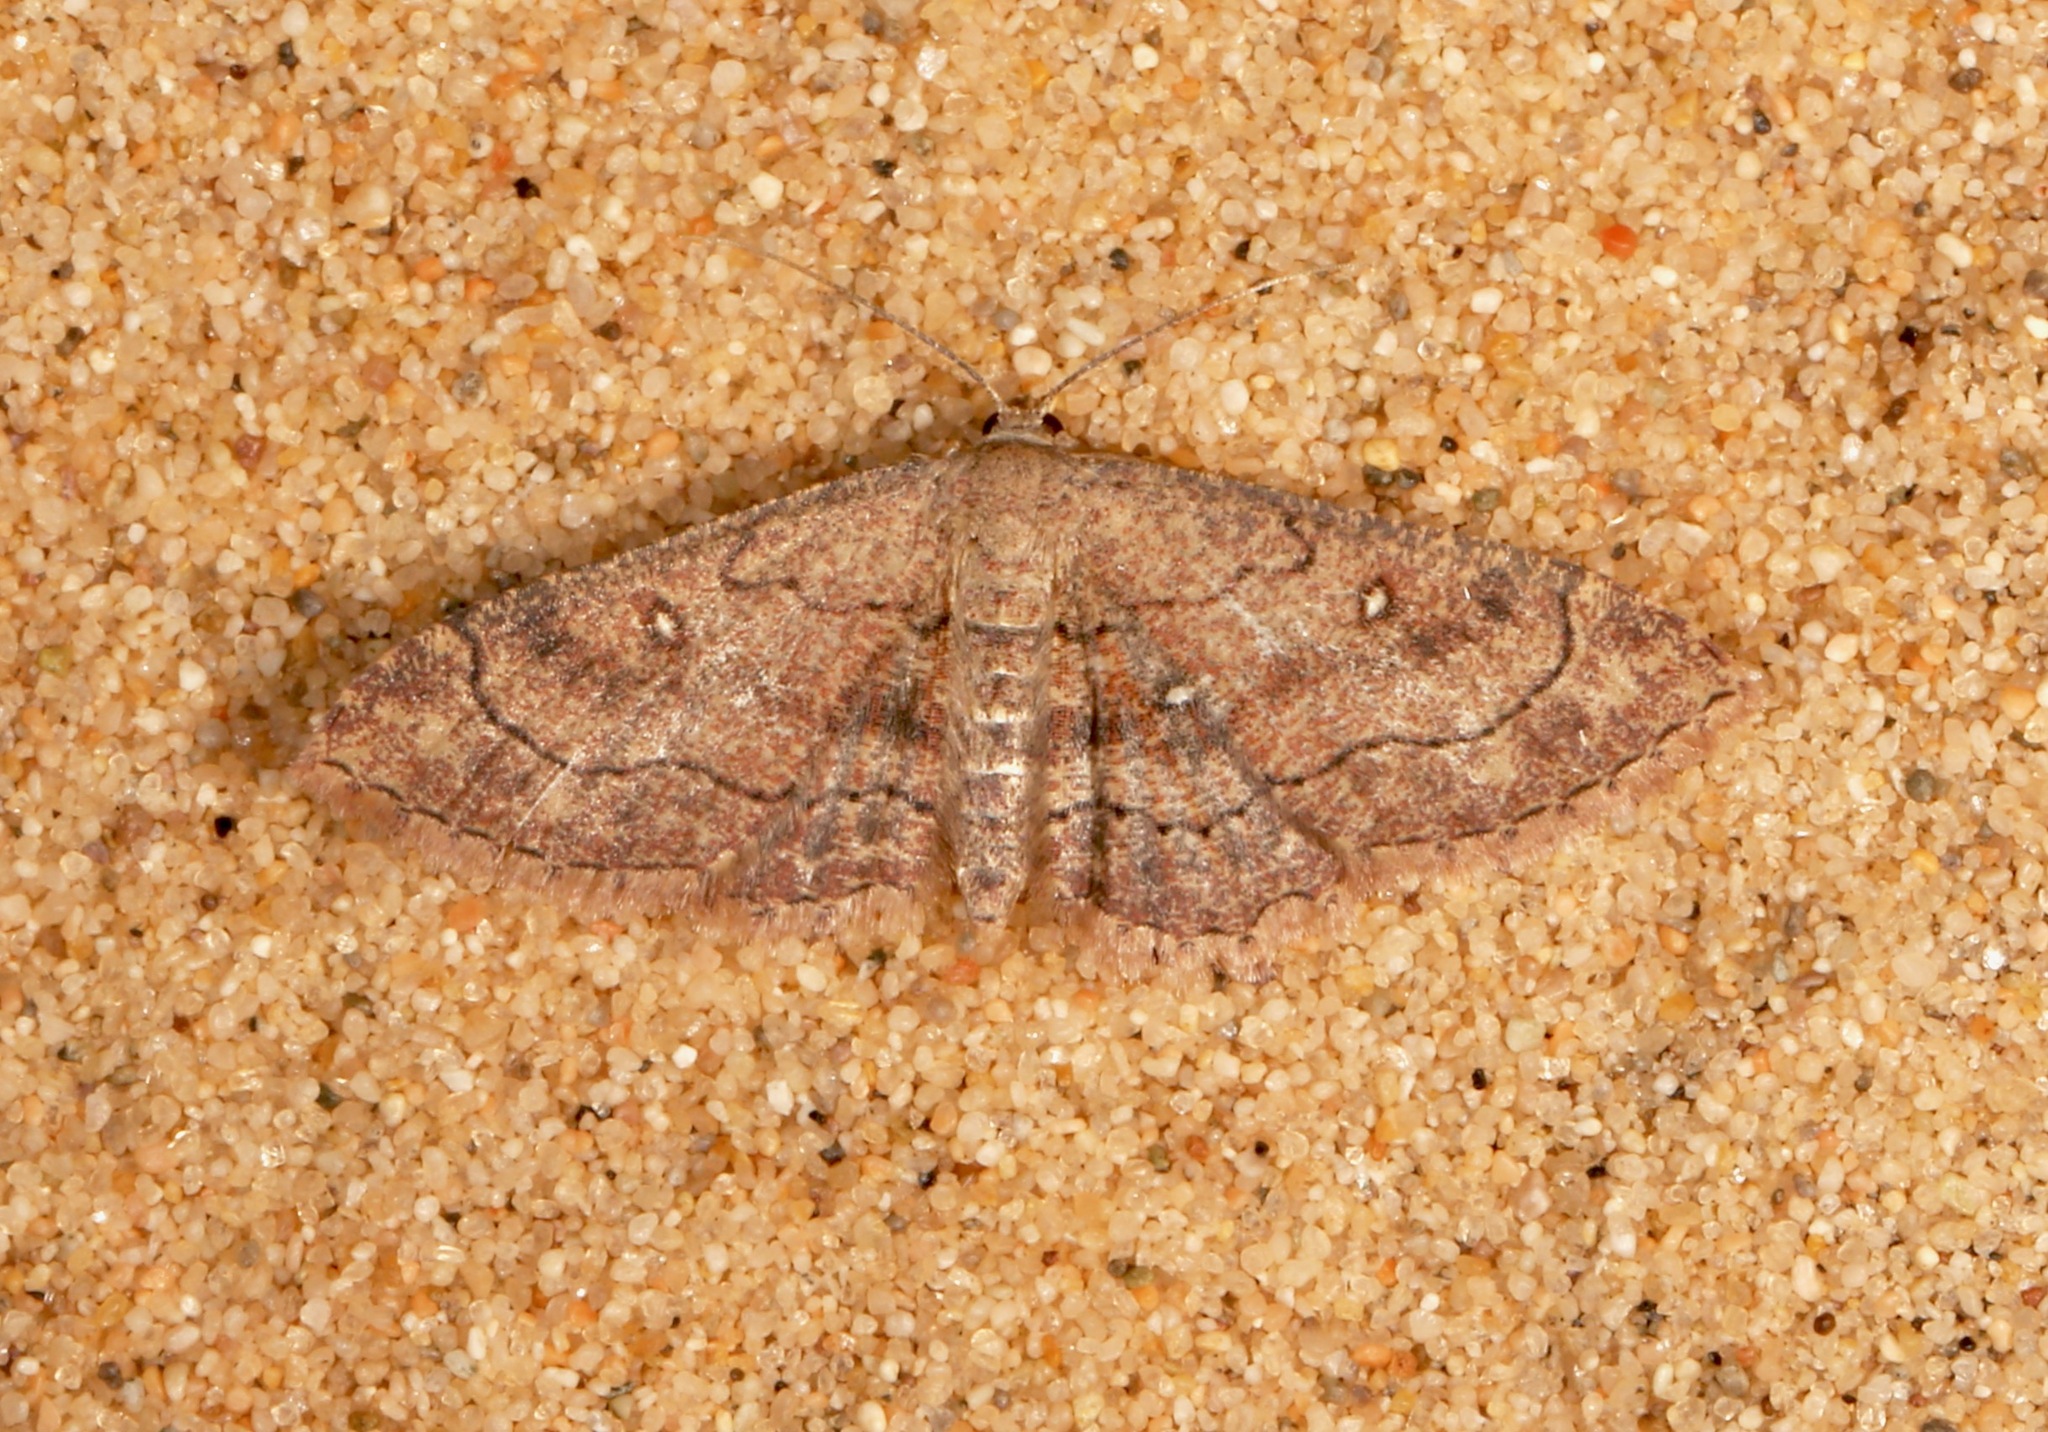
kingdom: Animalia
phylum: Arthropoda
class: Insecta
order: Lepidoptera
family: Geometridae
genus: Cyclophora
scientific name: Cyclophora nanaria
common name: Cankerworm
